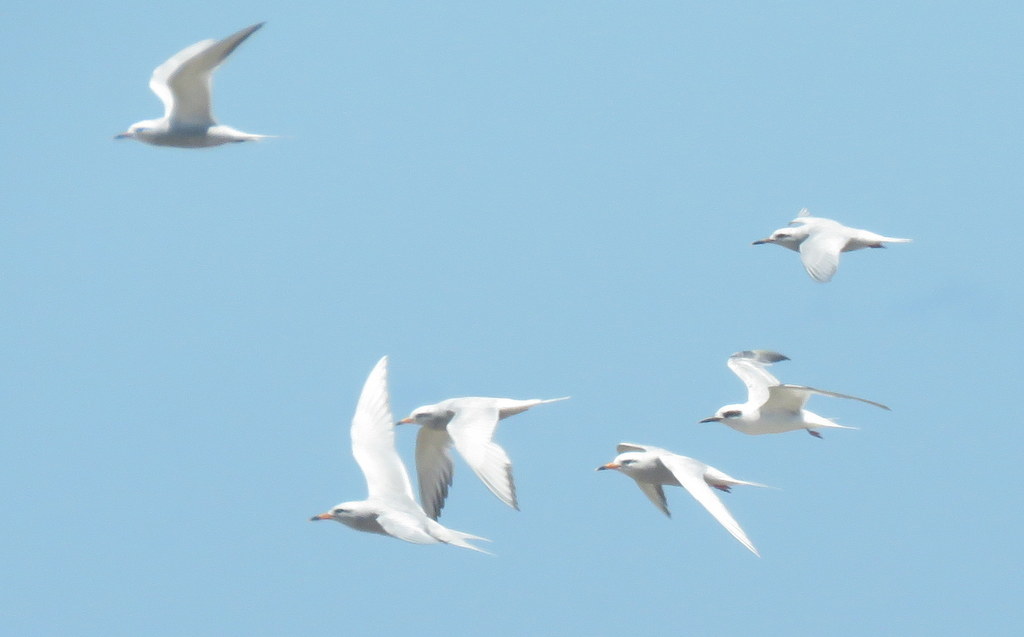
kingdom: Animalia
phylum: Chordata
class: Aves
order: Charadriiformes
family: Laridae
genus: Sterna
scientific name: Sterna trudeaui
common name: Snowy-crowned tern
